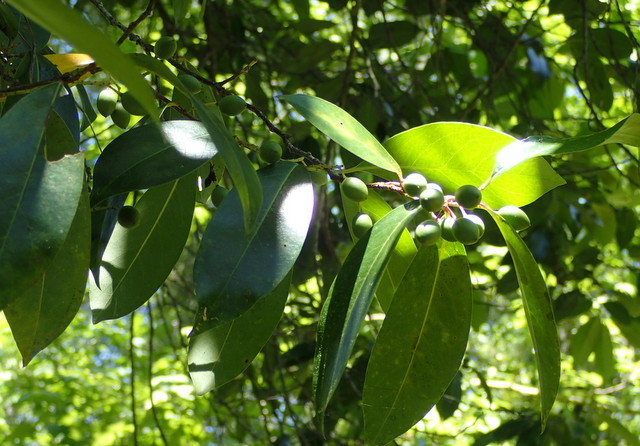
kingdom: Plantae
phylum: Tracheophyta
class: Magnoliopsida
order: Rosales
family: Rosaceae
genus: Prunus
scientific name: Prunus caroliniana
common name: Carolina laurel cherry
